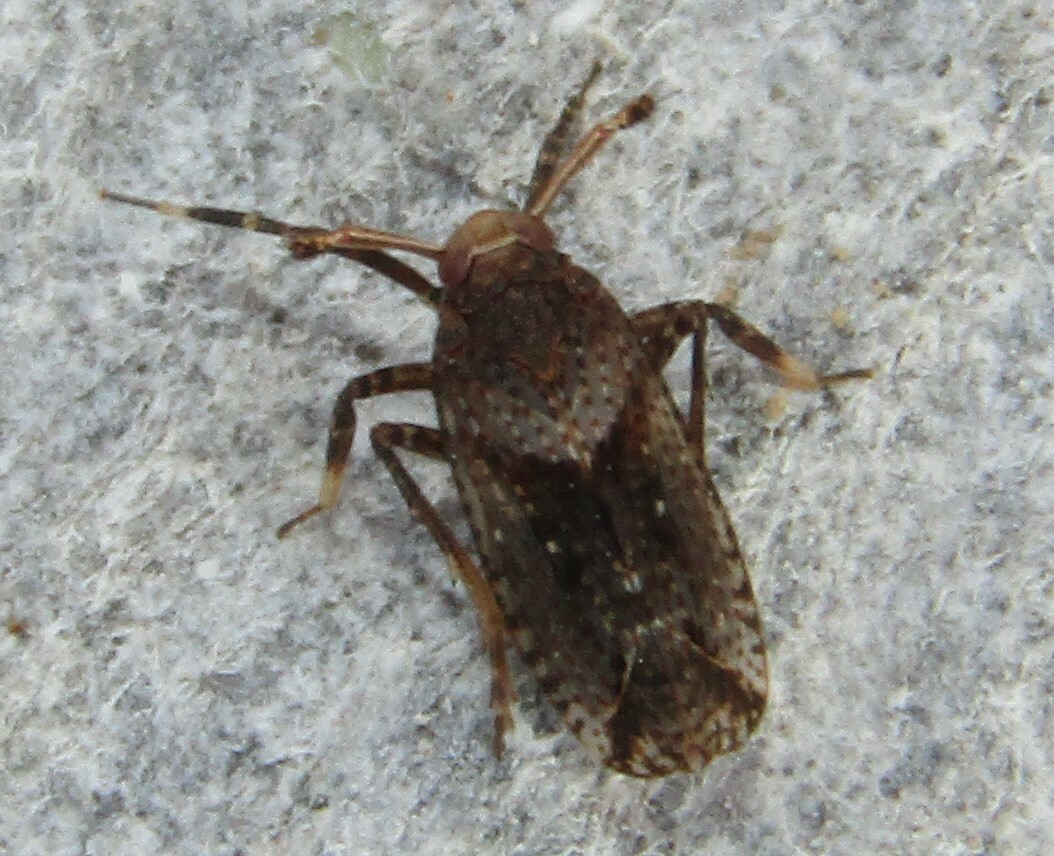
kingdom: Animalia
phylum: Arthropoda
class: Insecta
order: Hemiptera
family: Delphacidae
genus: Asiraca
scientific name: Asiraca clavicornis
